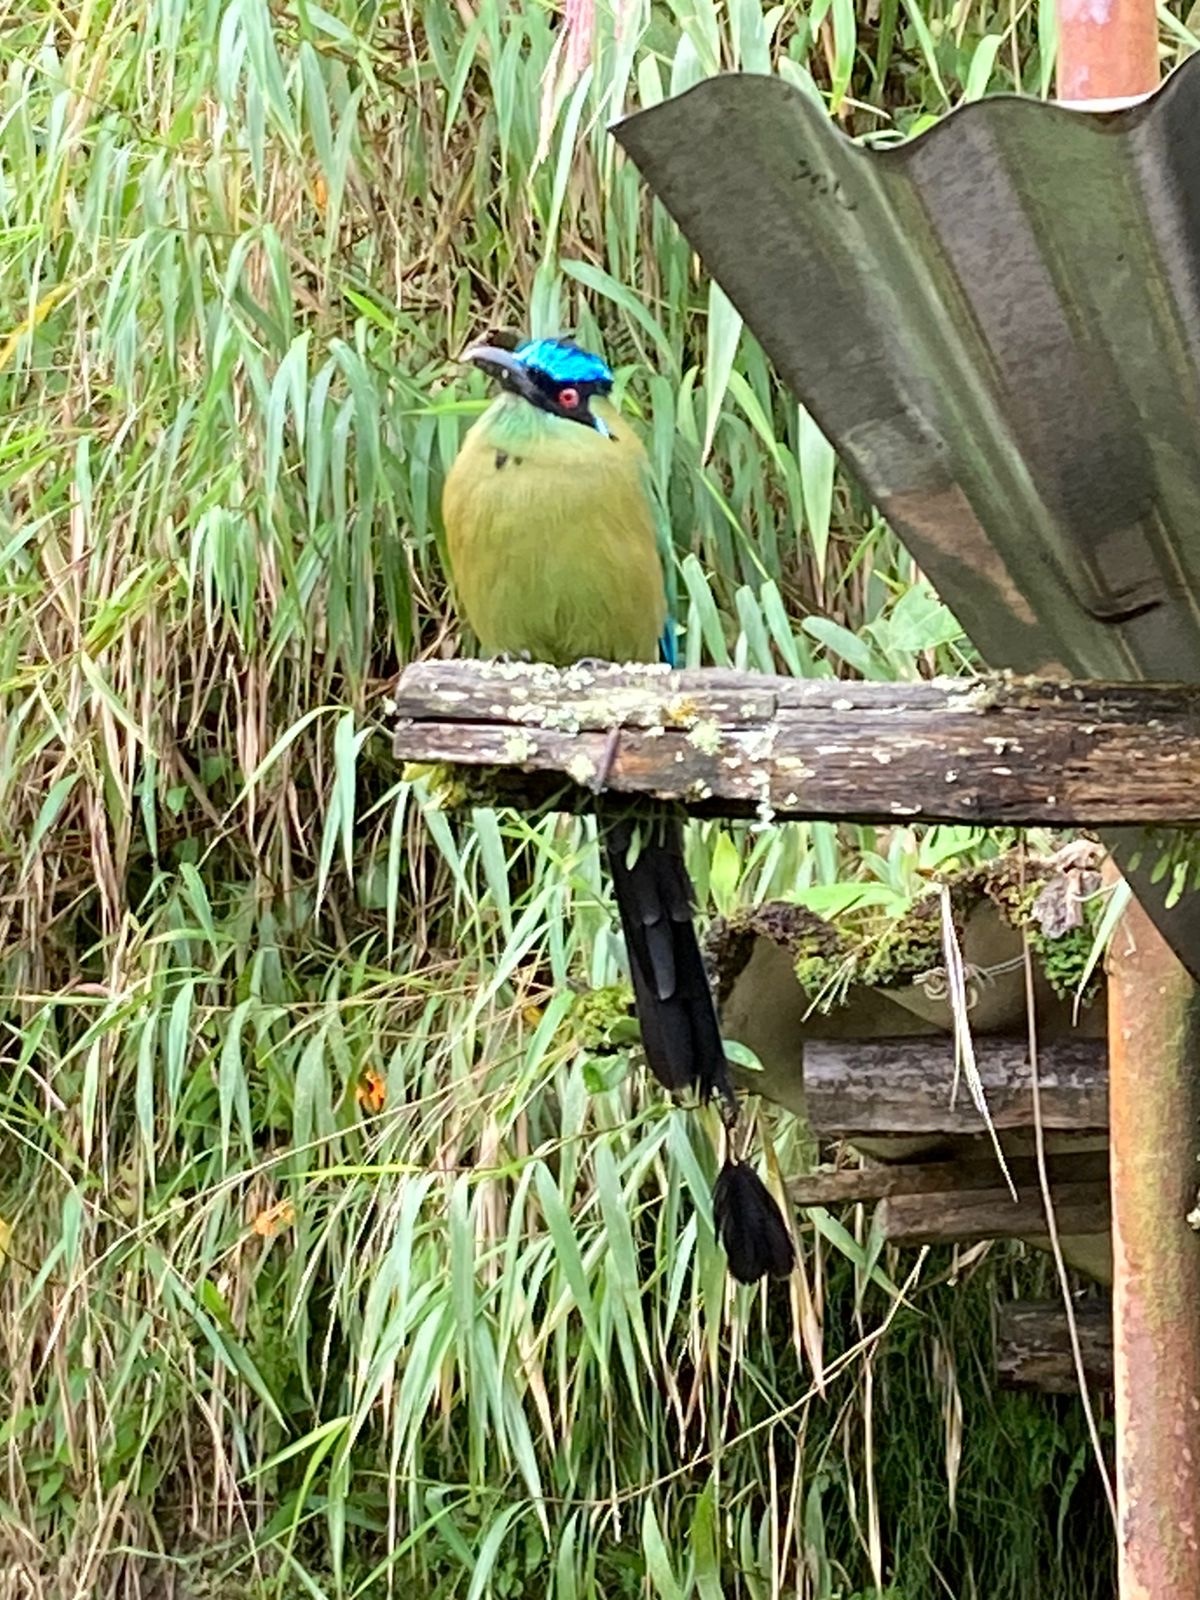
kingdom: Animalia
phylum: Chordata
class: Aves
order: Coraciiformes
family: Momotidae
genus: Momotus
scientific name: Momotus aequatorialis
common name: Andean motmot
